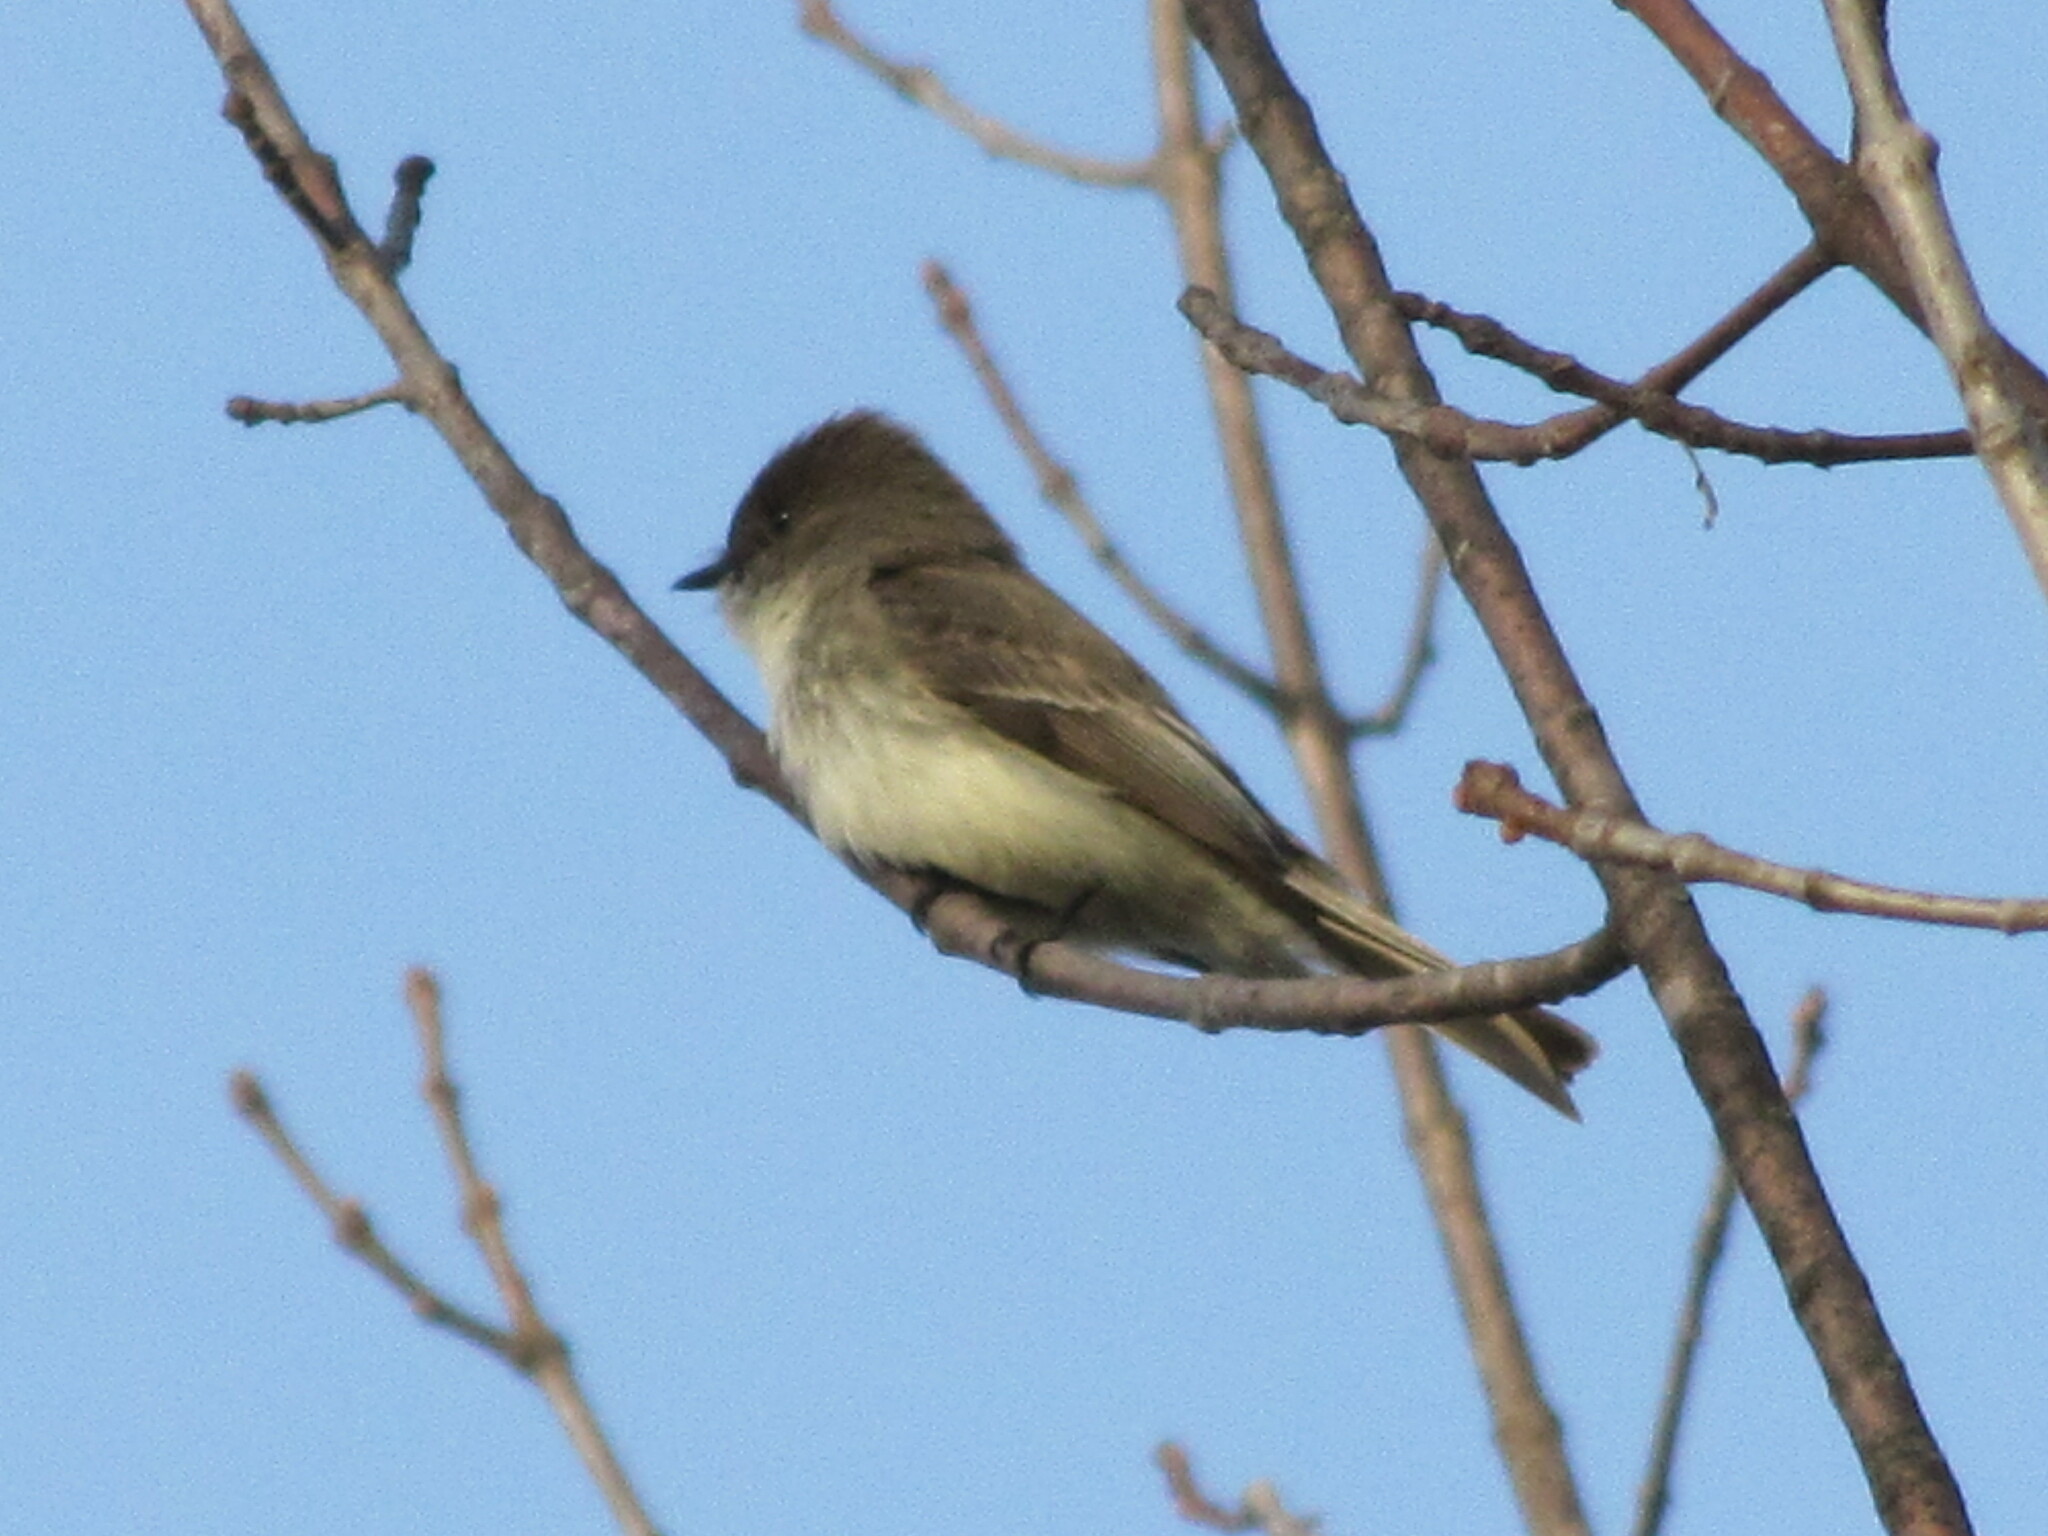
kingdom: Animalia
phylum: Chordata
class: Aves
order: Passeriformes
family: Tyrannidae
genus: Sayornis
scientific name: Sayornis phoebe
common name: Eastern phoebe
